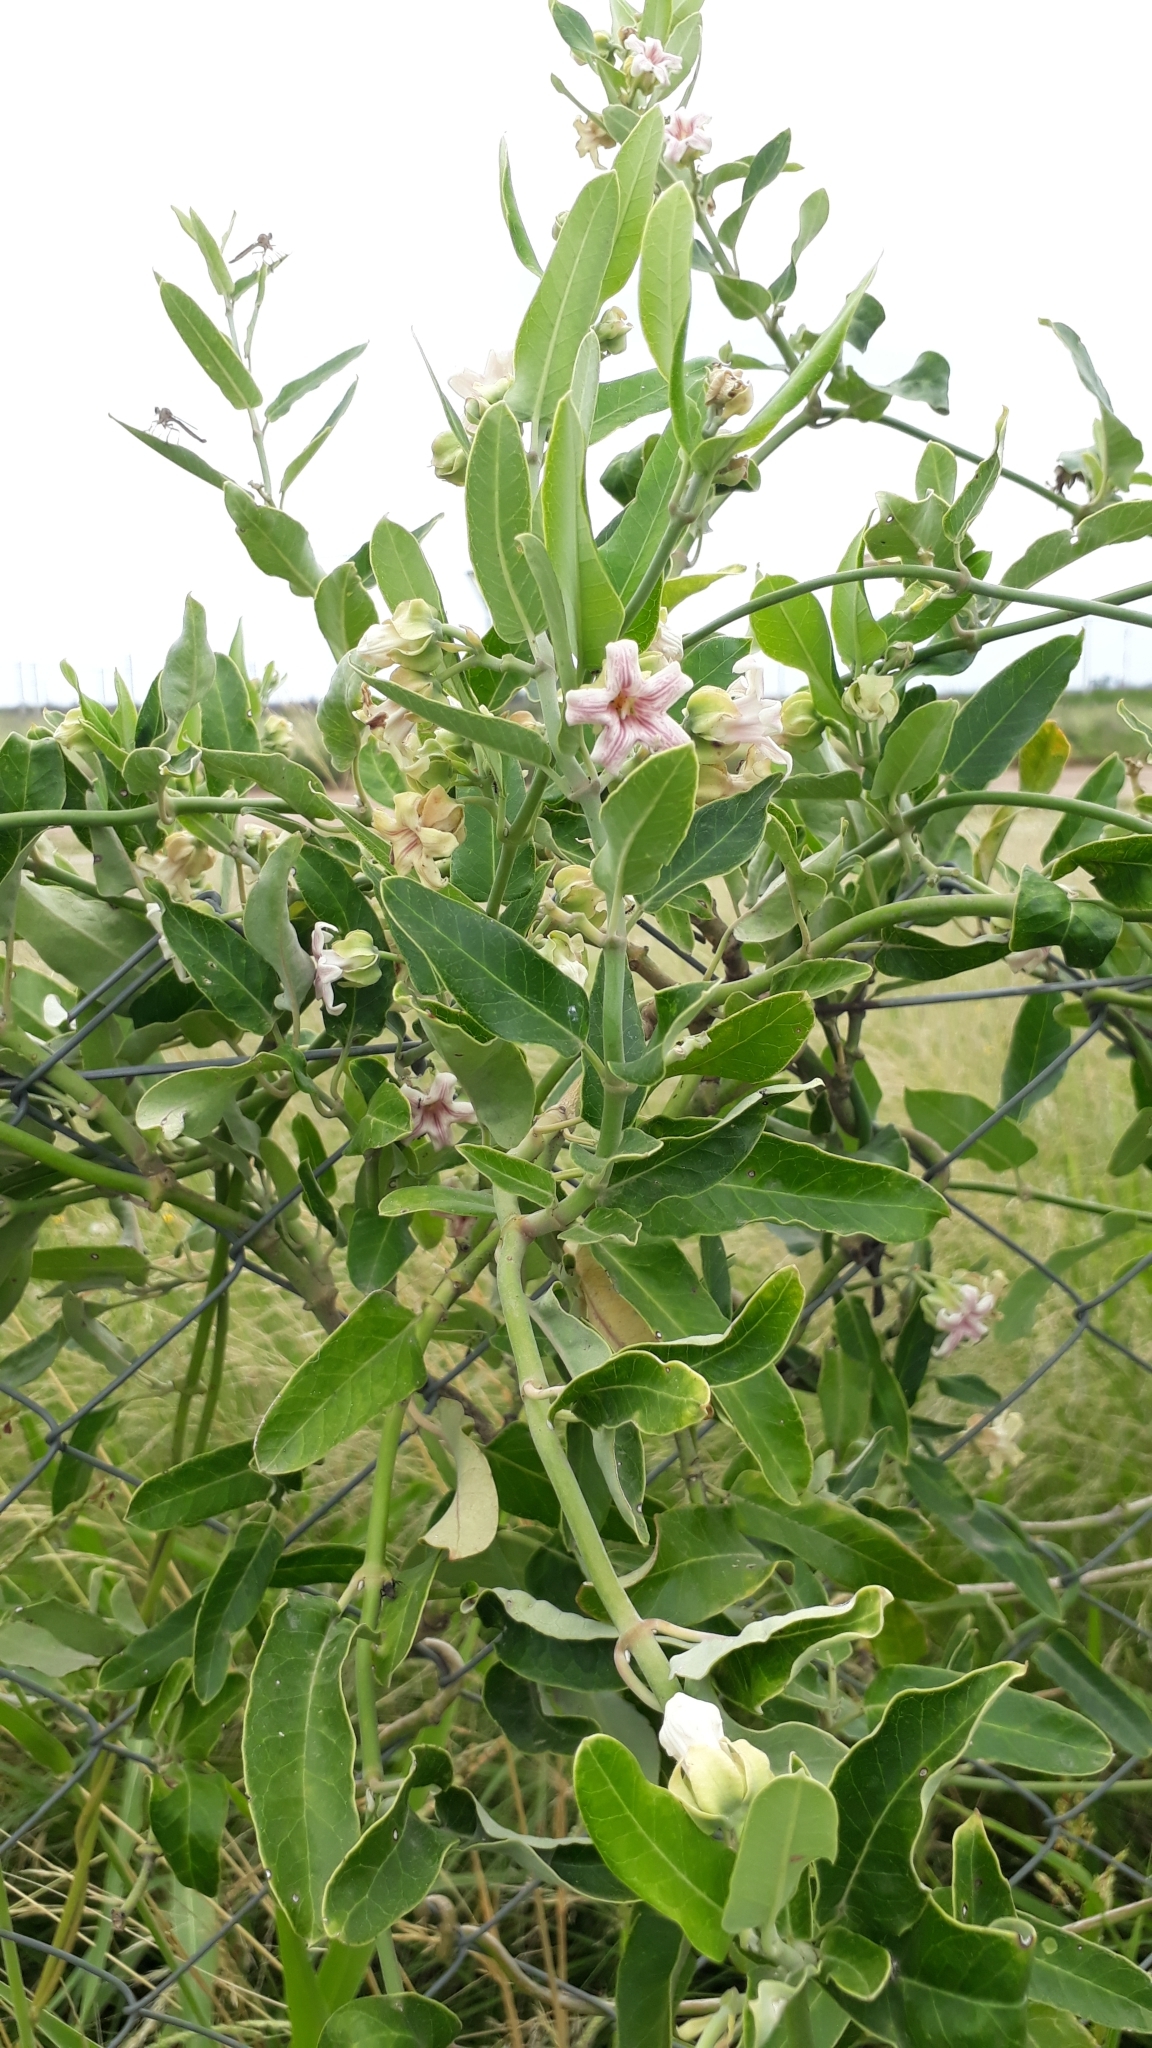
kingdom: Plantae
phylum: Tracheophyta
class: Magnoliopsida
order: Gentianales
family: Apocynaceae
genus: Araujia
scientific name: Araujia sericifera
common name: White bladderflower
